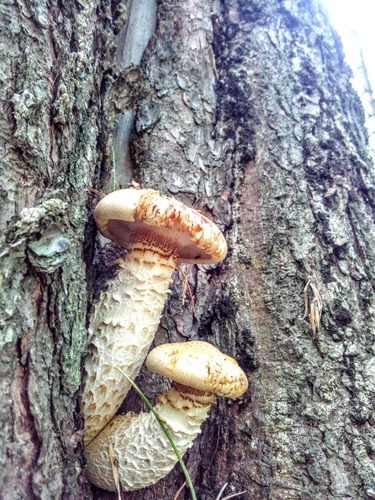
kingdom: Fungi
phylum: Basidiomycota
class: Agaricomycetes
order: Gloeophyllales
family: Gloeophyllaceae
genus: Neolentinus
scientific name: Neolentinus lepideus
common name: Scaly sawgill
